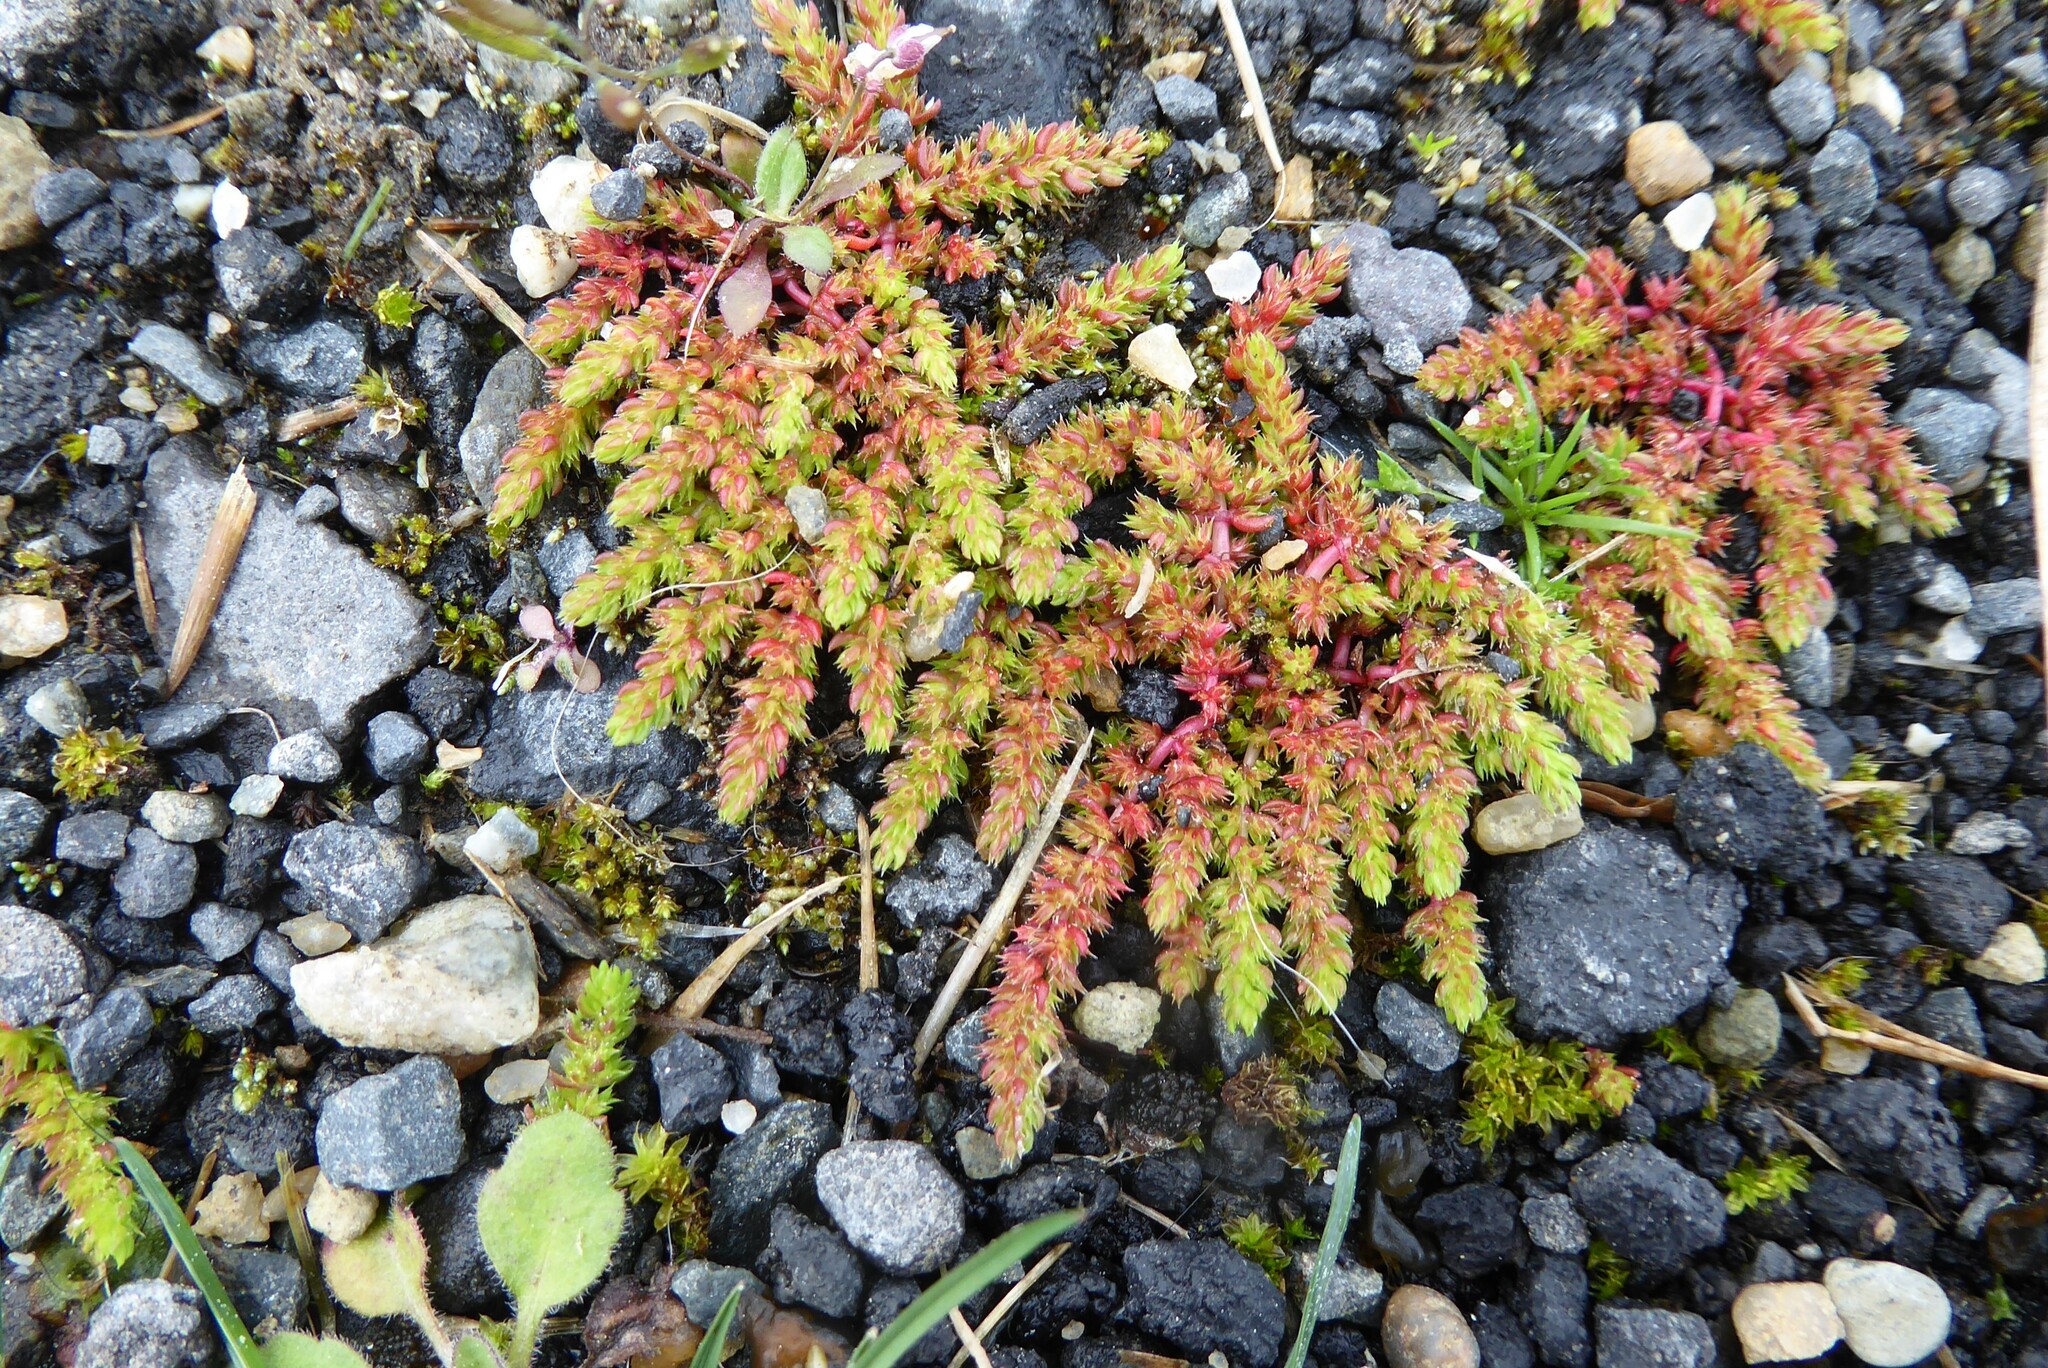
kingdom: Plantae
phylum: Tracheophyta
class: Magnoliopsida
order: Saxifragales
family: Crassulaceae
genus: Crassula
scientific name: Crassula alata
